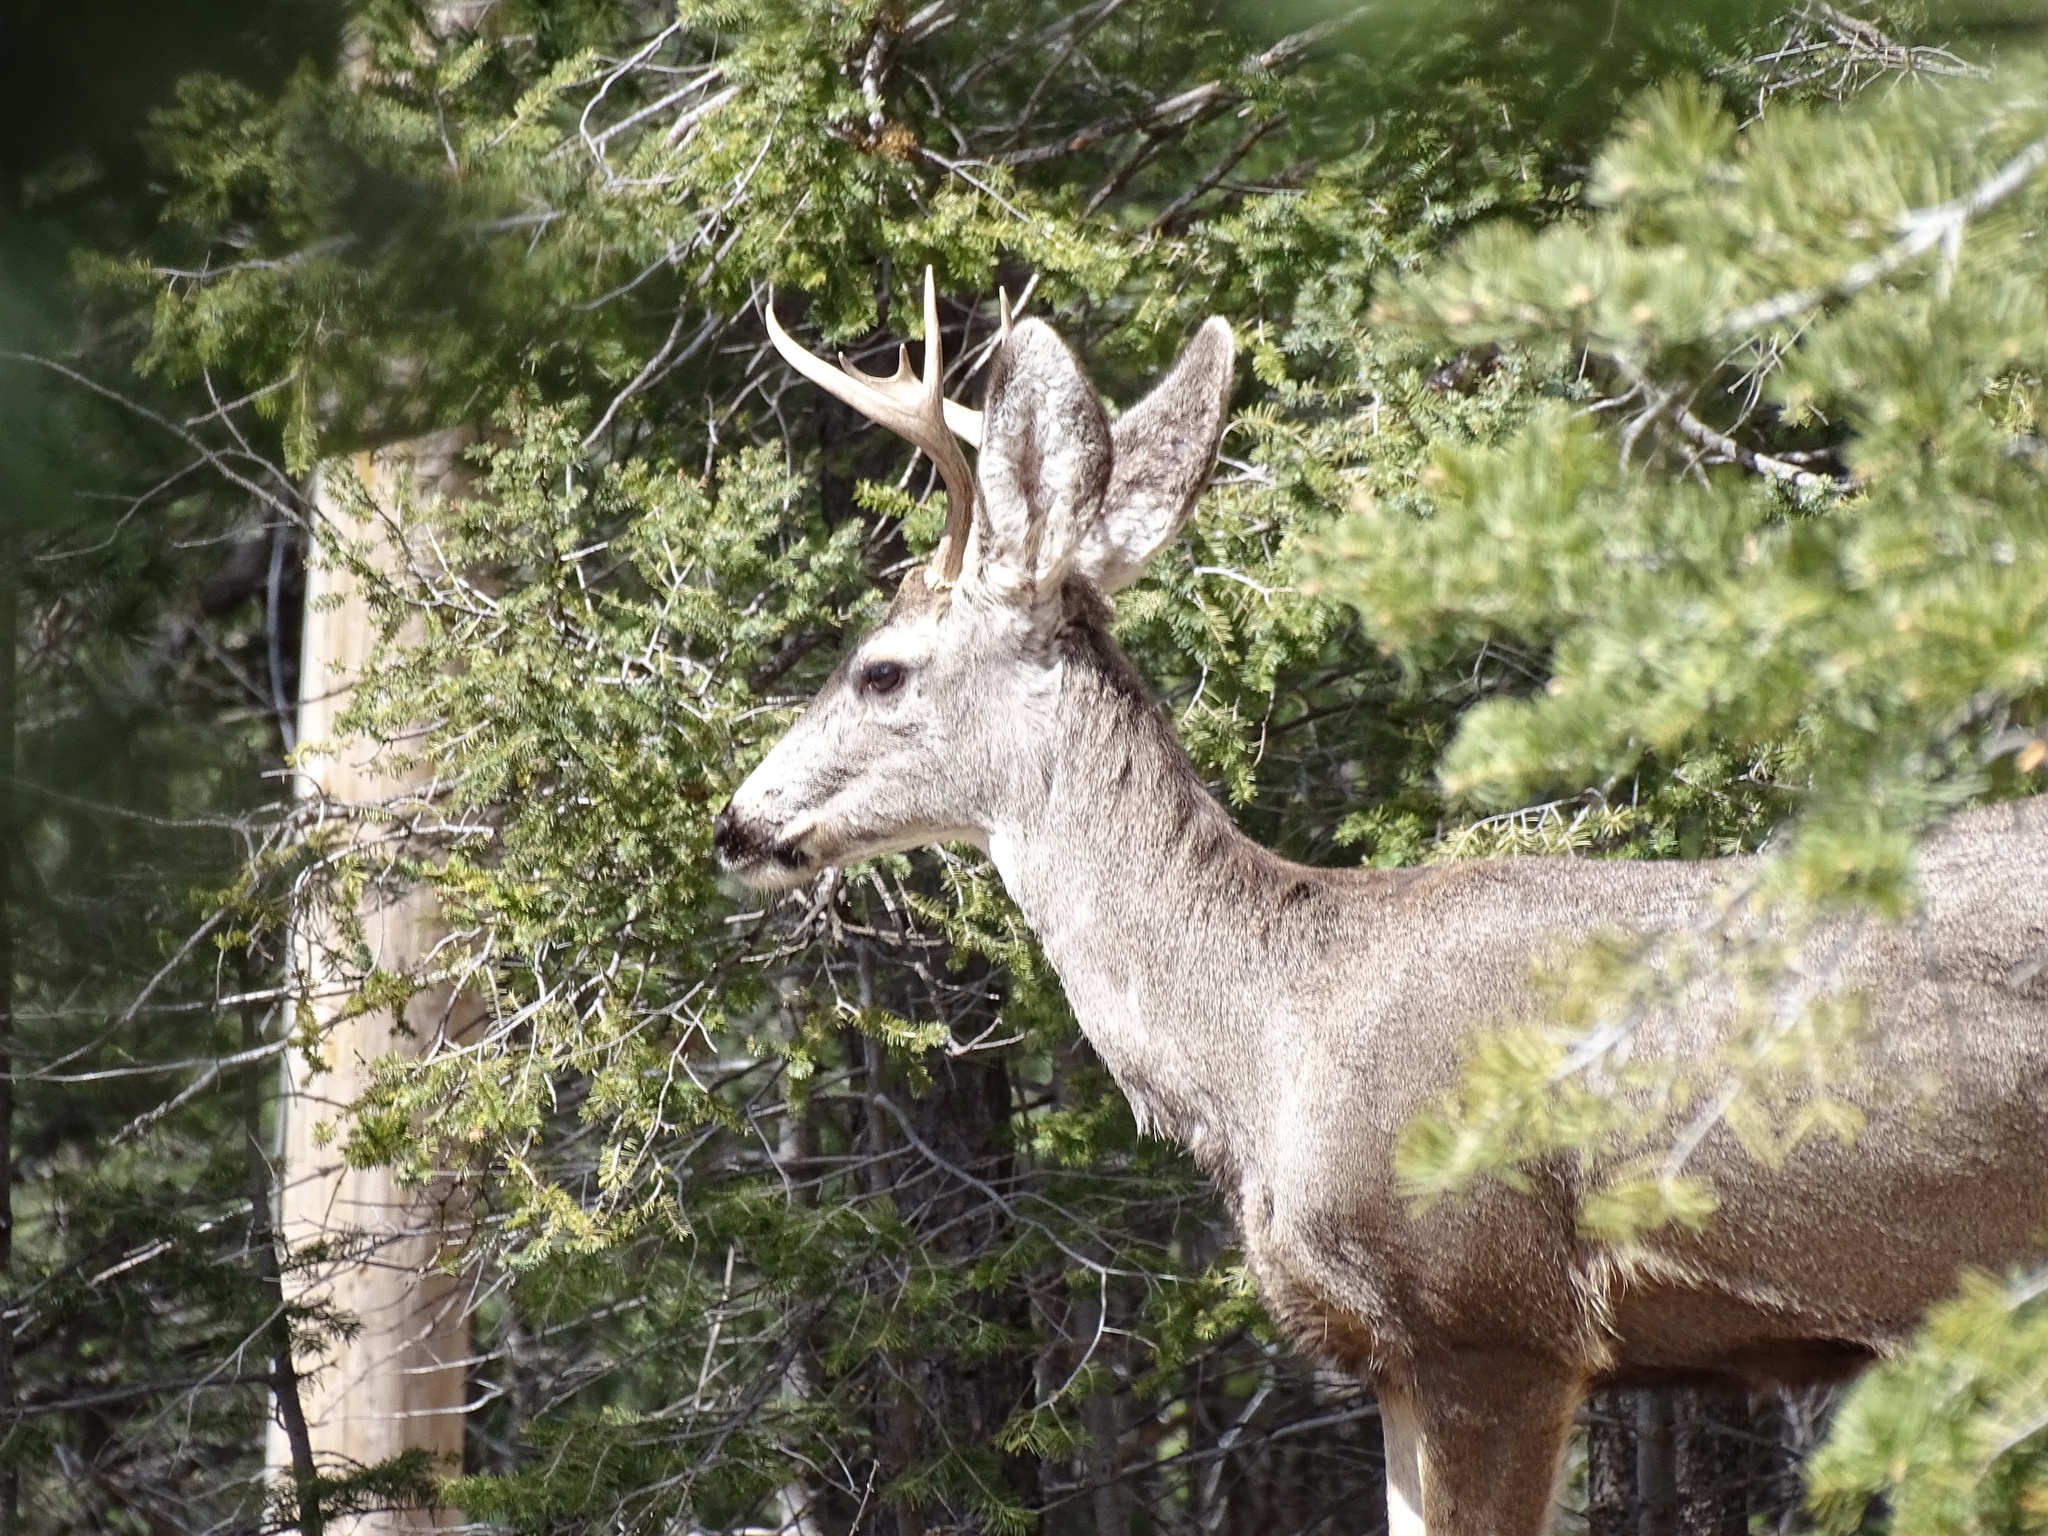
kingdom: Animalia
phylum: Chordata
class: Mammalia
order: Artiodactyla
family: Cervidae
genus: Odocoileus
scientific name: Odocoileus hemionus
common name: Mule deer
